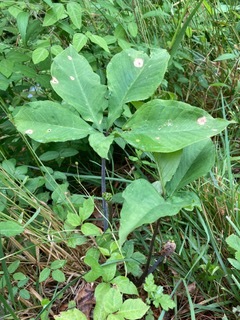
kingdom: Plantae
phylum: Tracheophyta
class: Liliopsida
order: Alismatales
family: Araceae
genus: Arisaema
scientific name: Arisaema dracontium
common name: Dragon-arum
